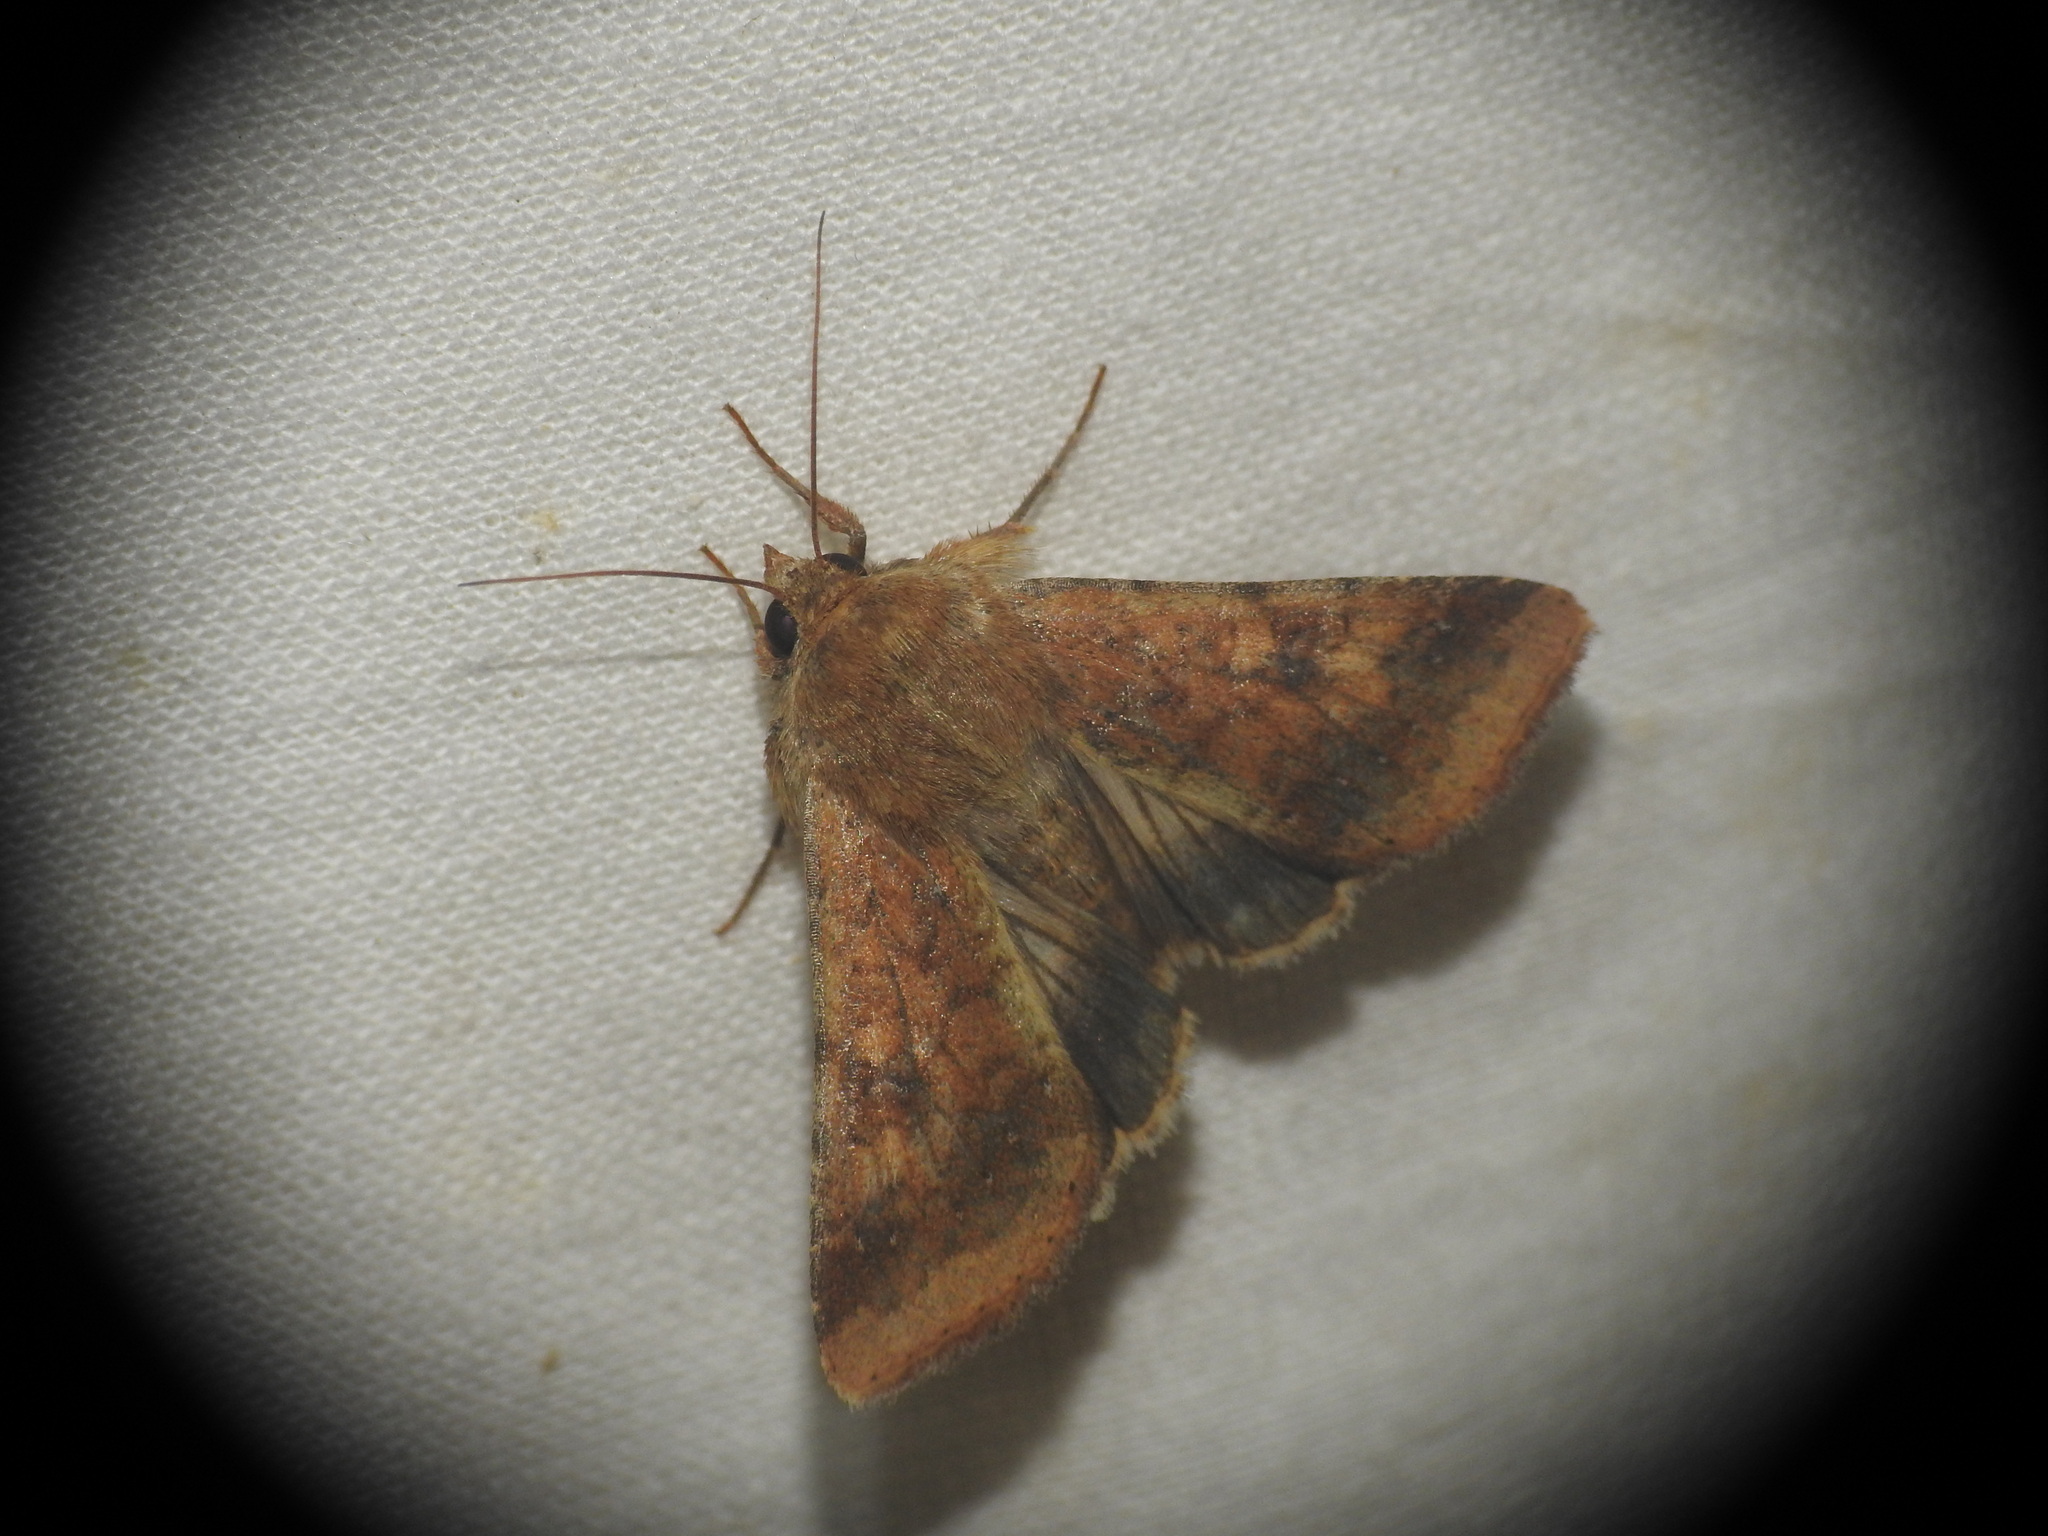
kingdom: Animalia
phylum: Arthropoda
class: Insecta
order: Lepidoptera
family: Noctuidae
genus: Helicoverpa
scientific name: Helicoverpa armigera
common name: Cotton bollworm
